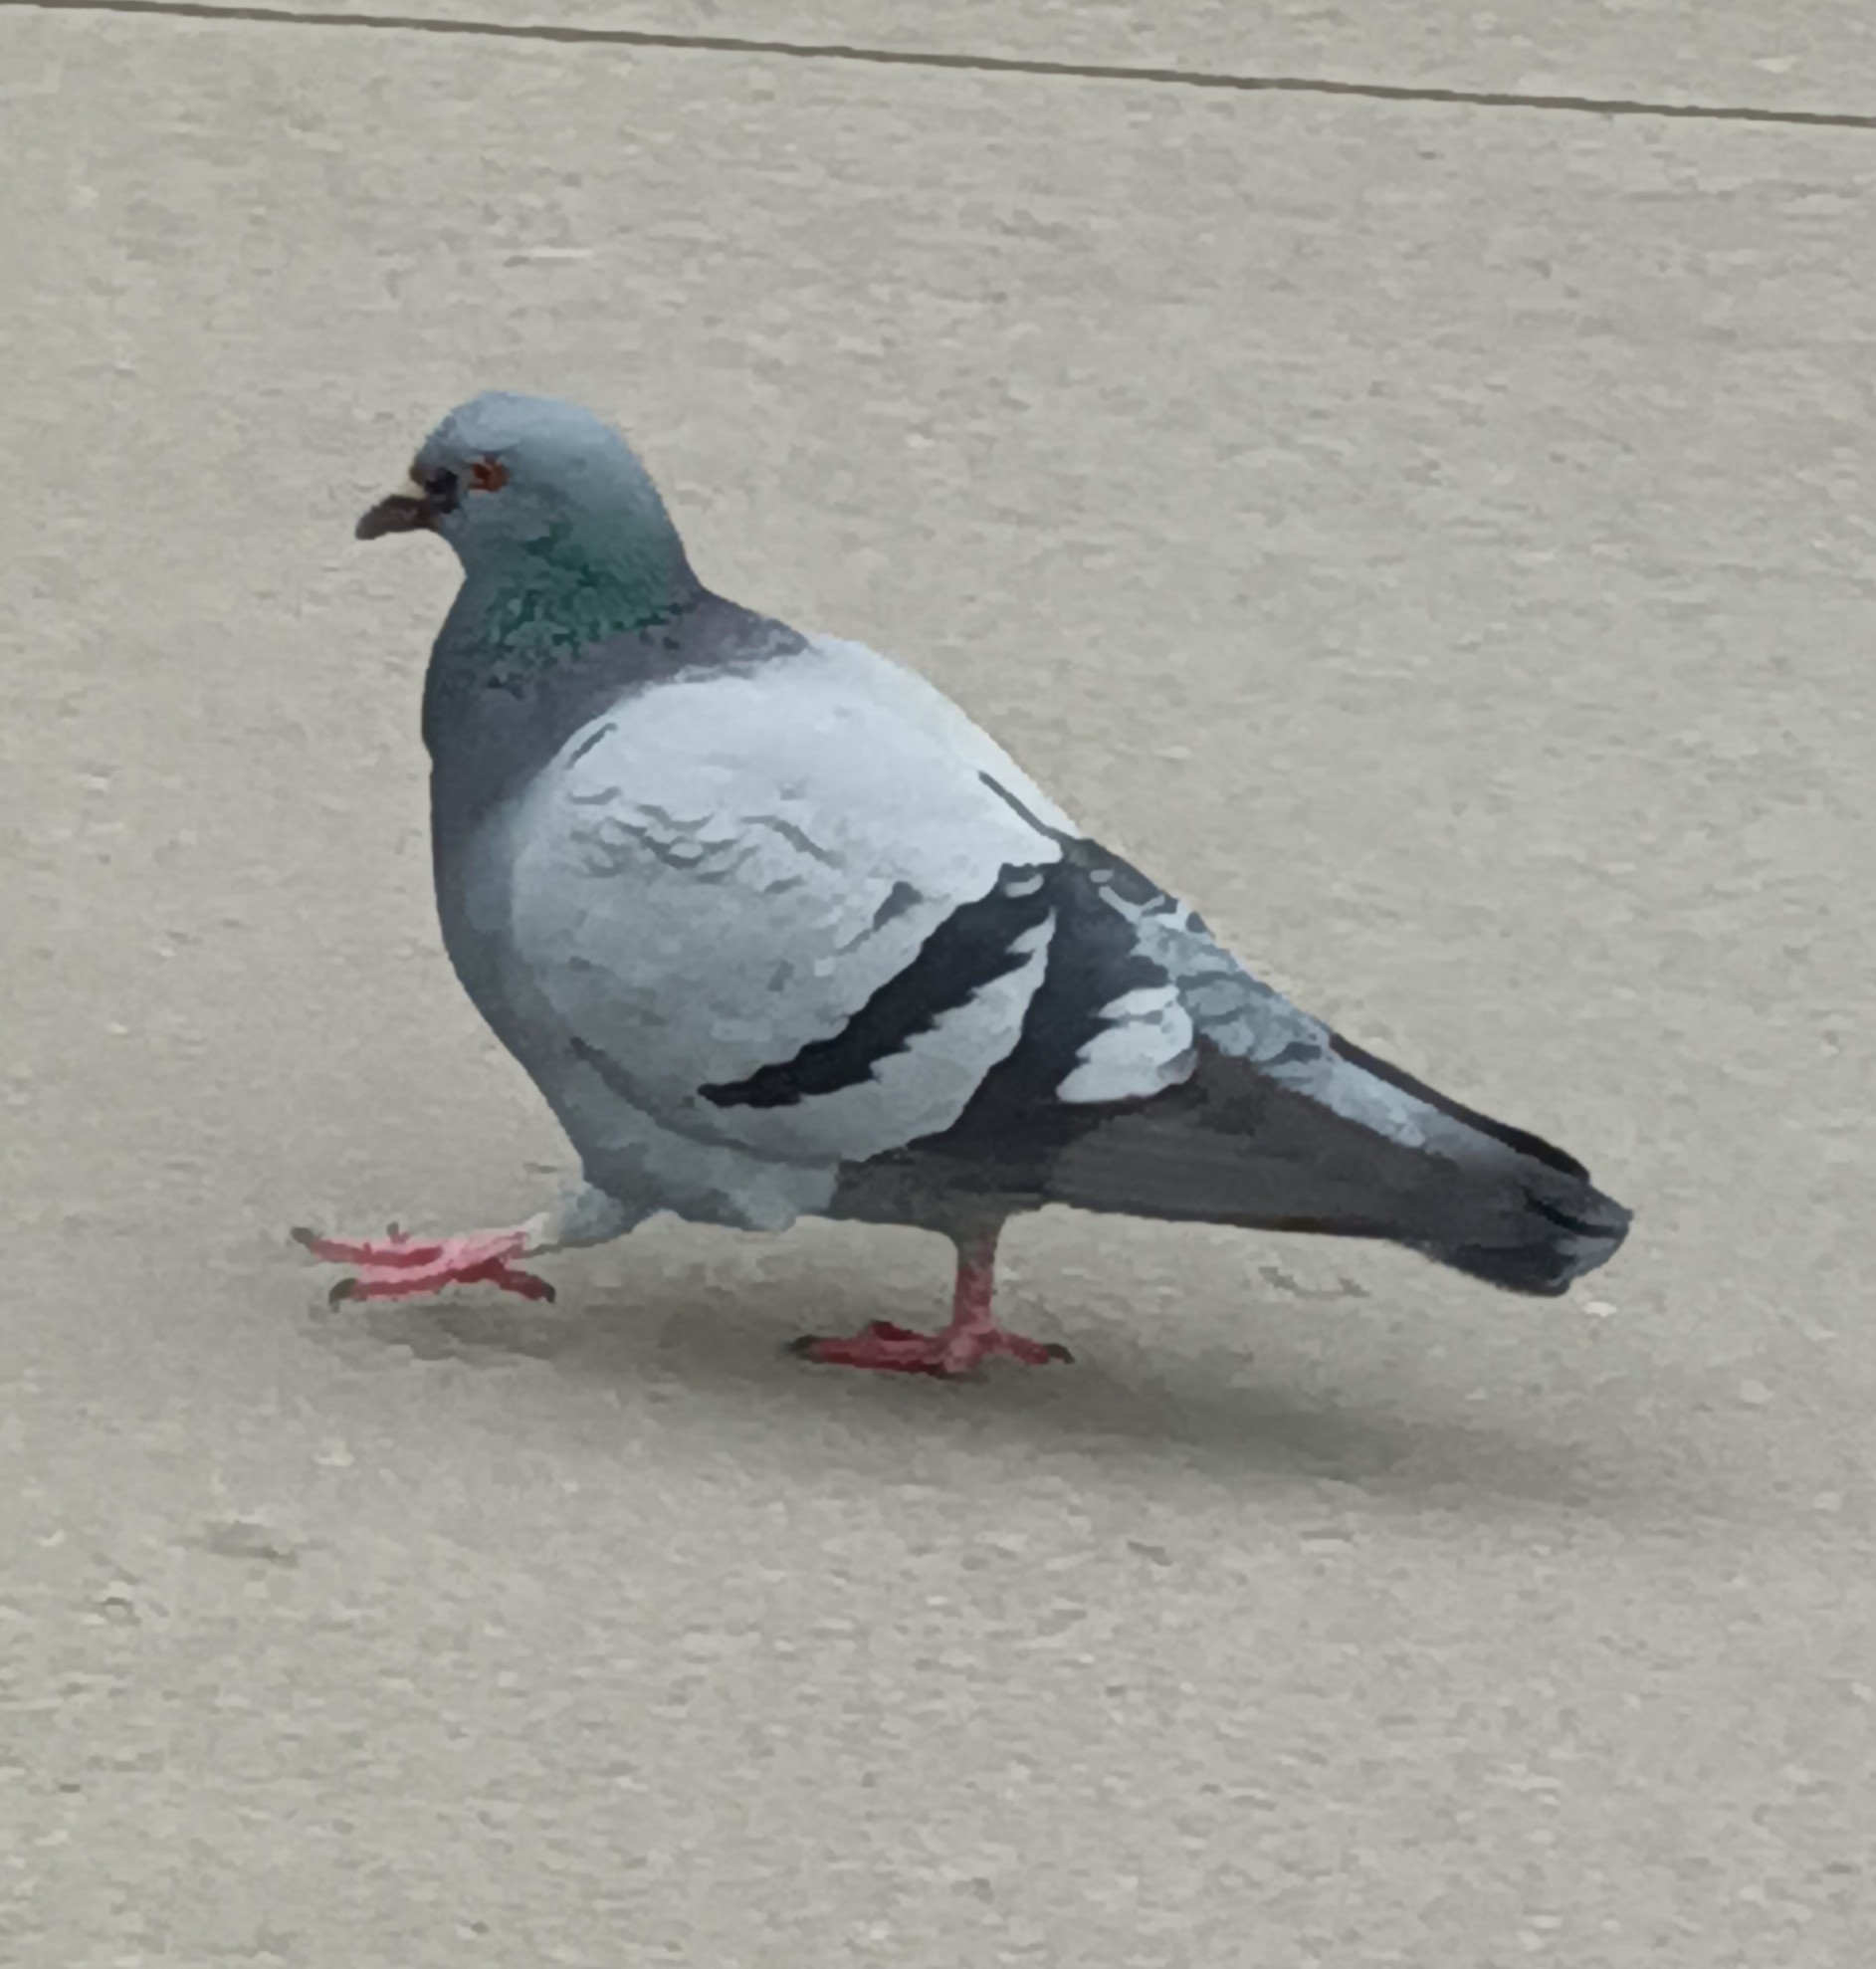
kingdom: Animalia
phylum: Chordata
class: Aves
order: Columbiformes
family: Columbidae
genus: Columba
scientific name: Columba livia
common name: Rock pigeon
